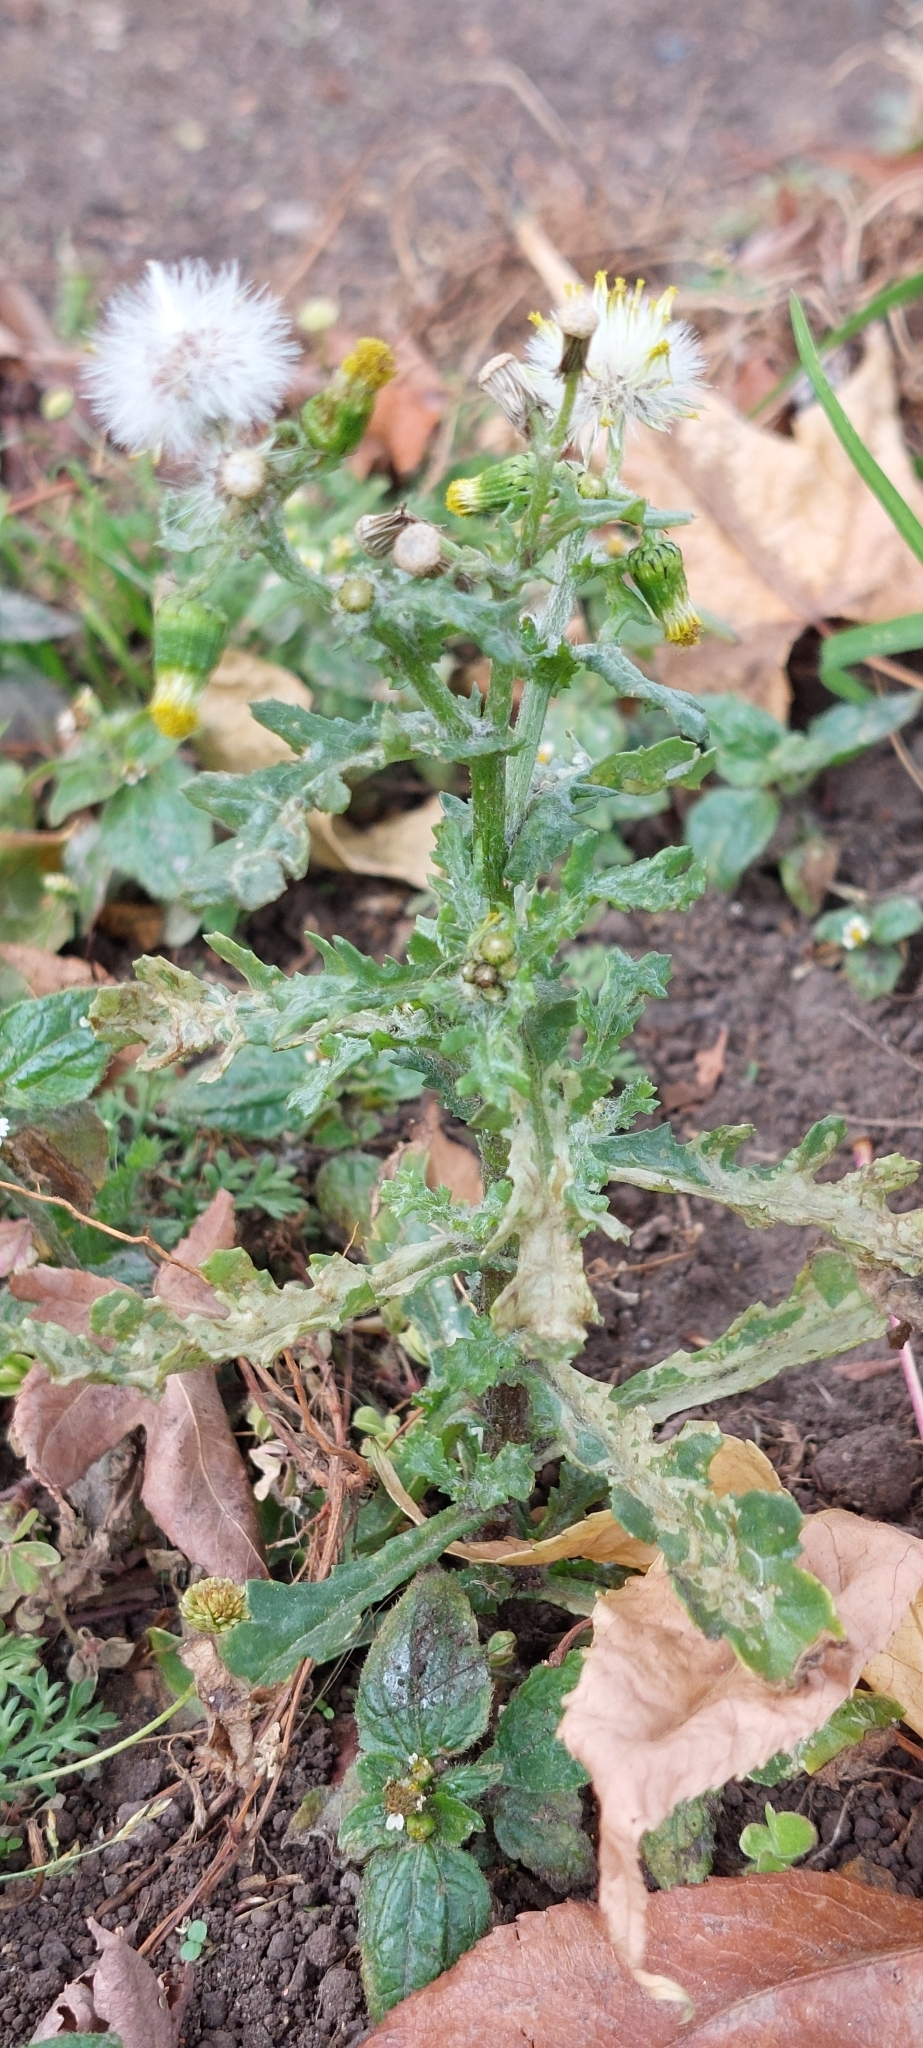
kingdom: Plantae
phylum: Tracheophyta
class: Magnoliopsida
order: Asterales
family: Asteraceae
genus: Senecio
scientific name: Senecio vulgaris
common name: Old-man-in-the-spring
